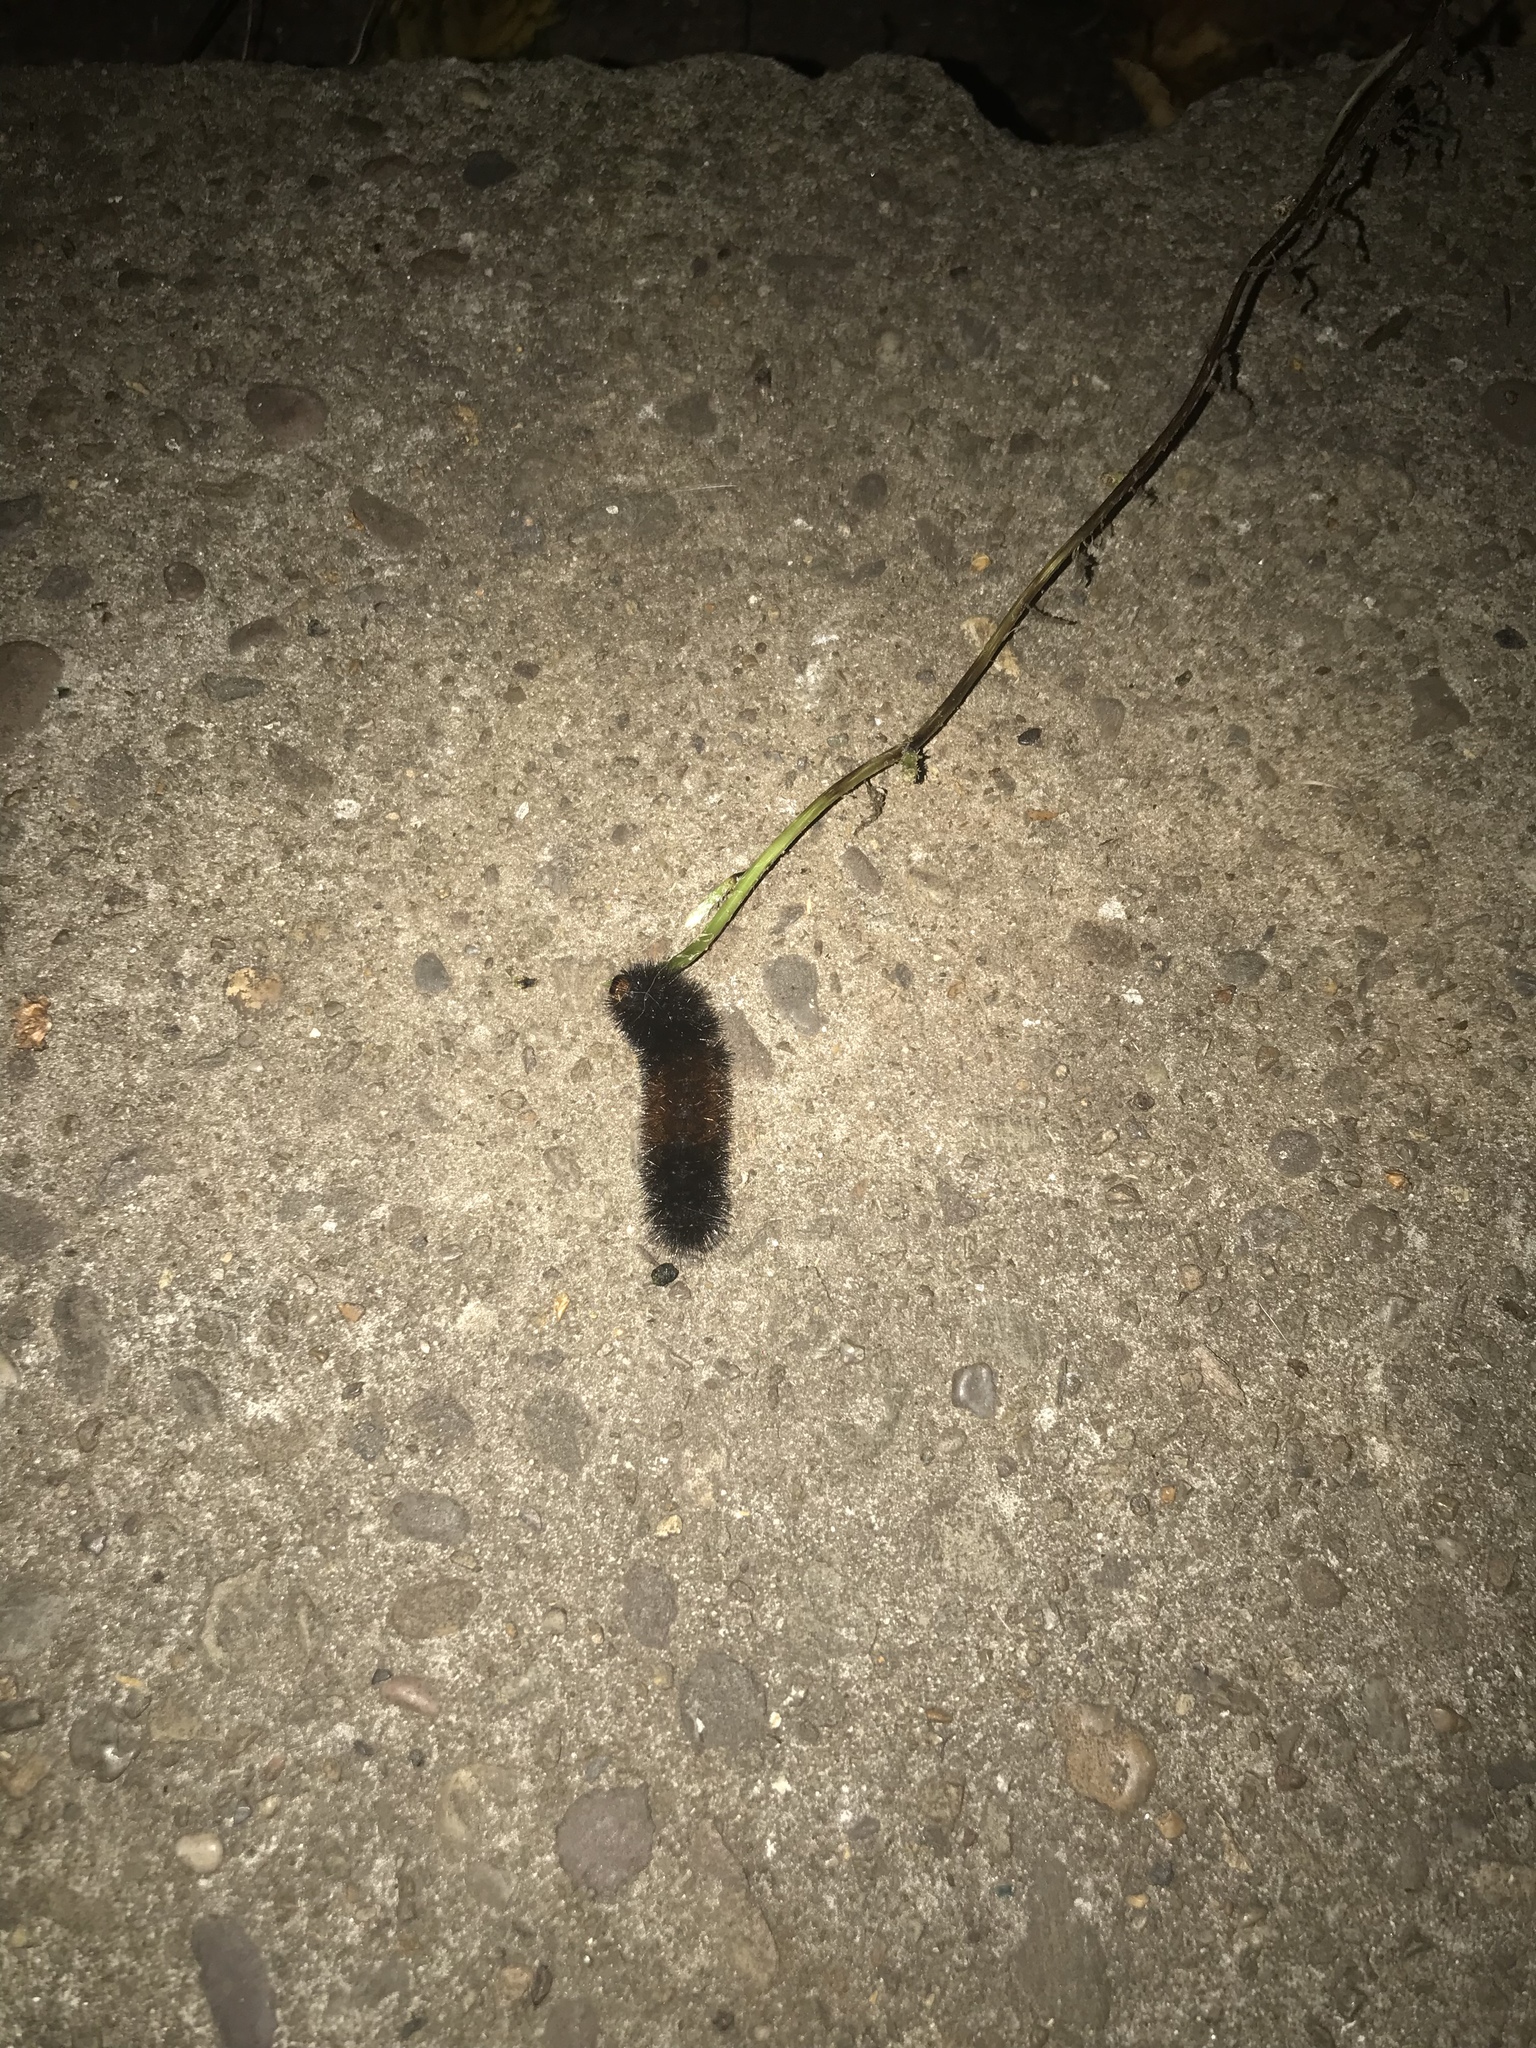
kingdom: Animalia
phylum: Arthropoda
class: Insecta
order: Lepidoptera
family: Erebidae
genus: Pyrrharctia
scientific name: Pyrrharctia isabella
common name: Isabella tiger moth
